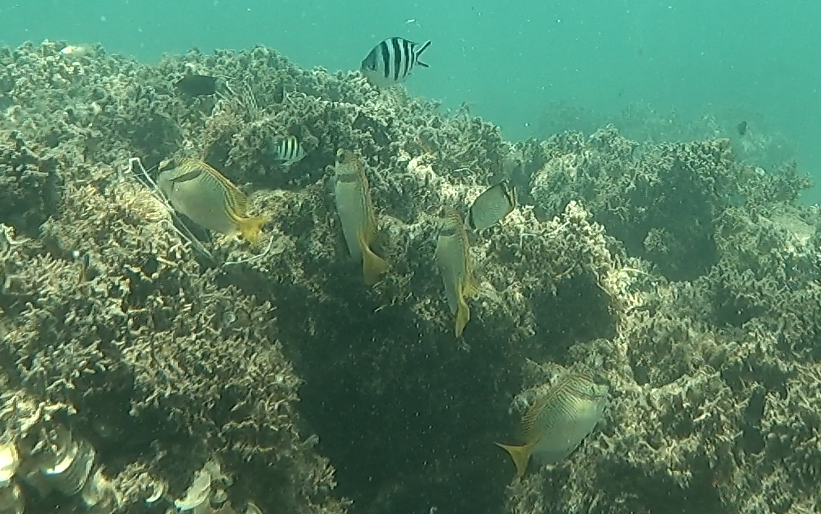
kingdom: Animalia
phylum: Chordata
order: Perciformes
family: Siganidae
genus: Siganus
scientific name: Siganus doliatus
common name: Barred spinefoot
